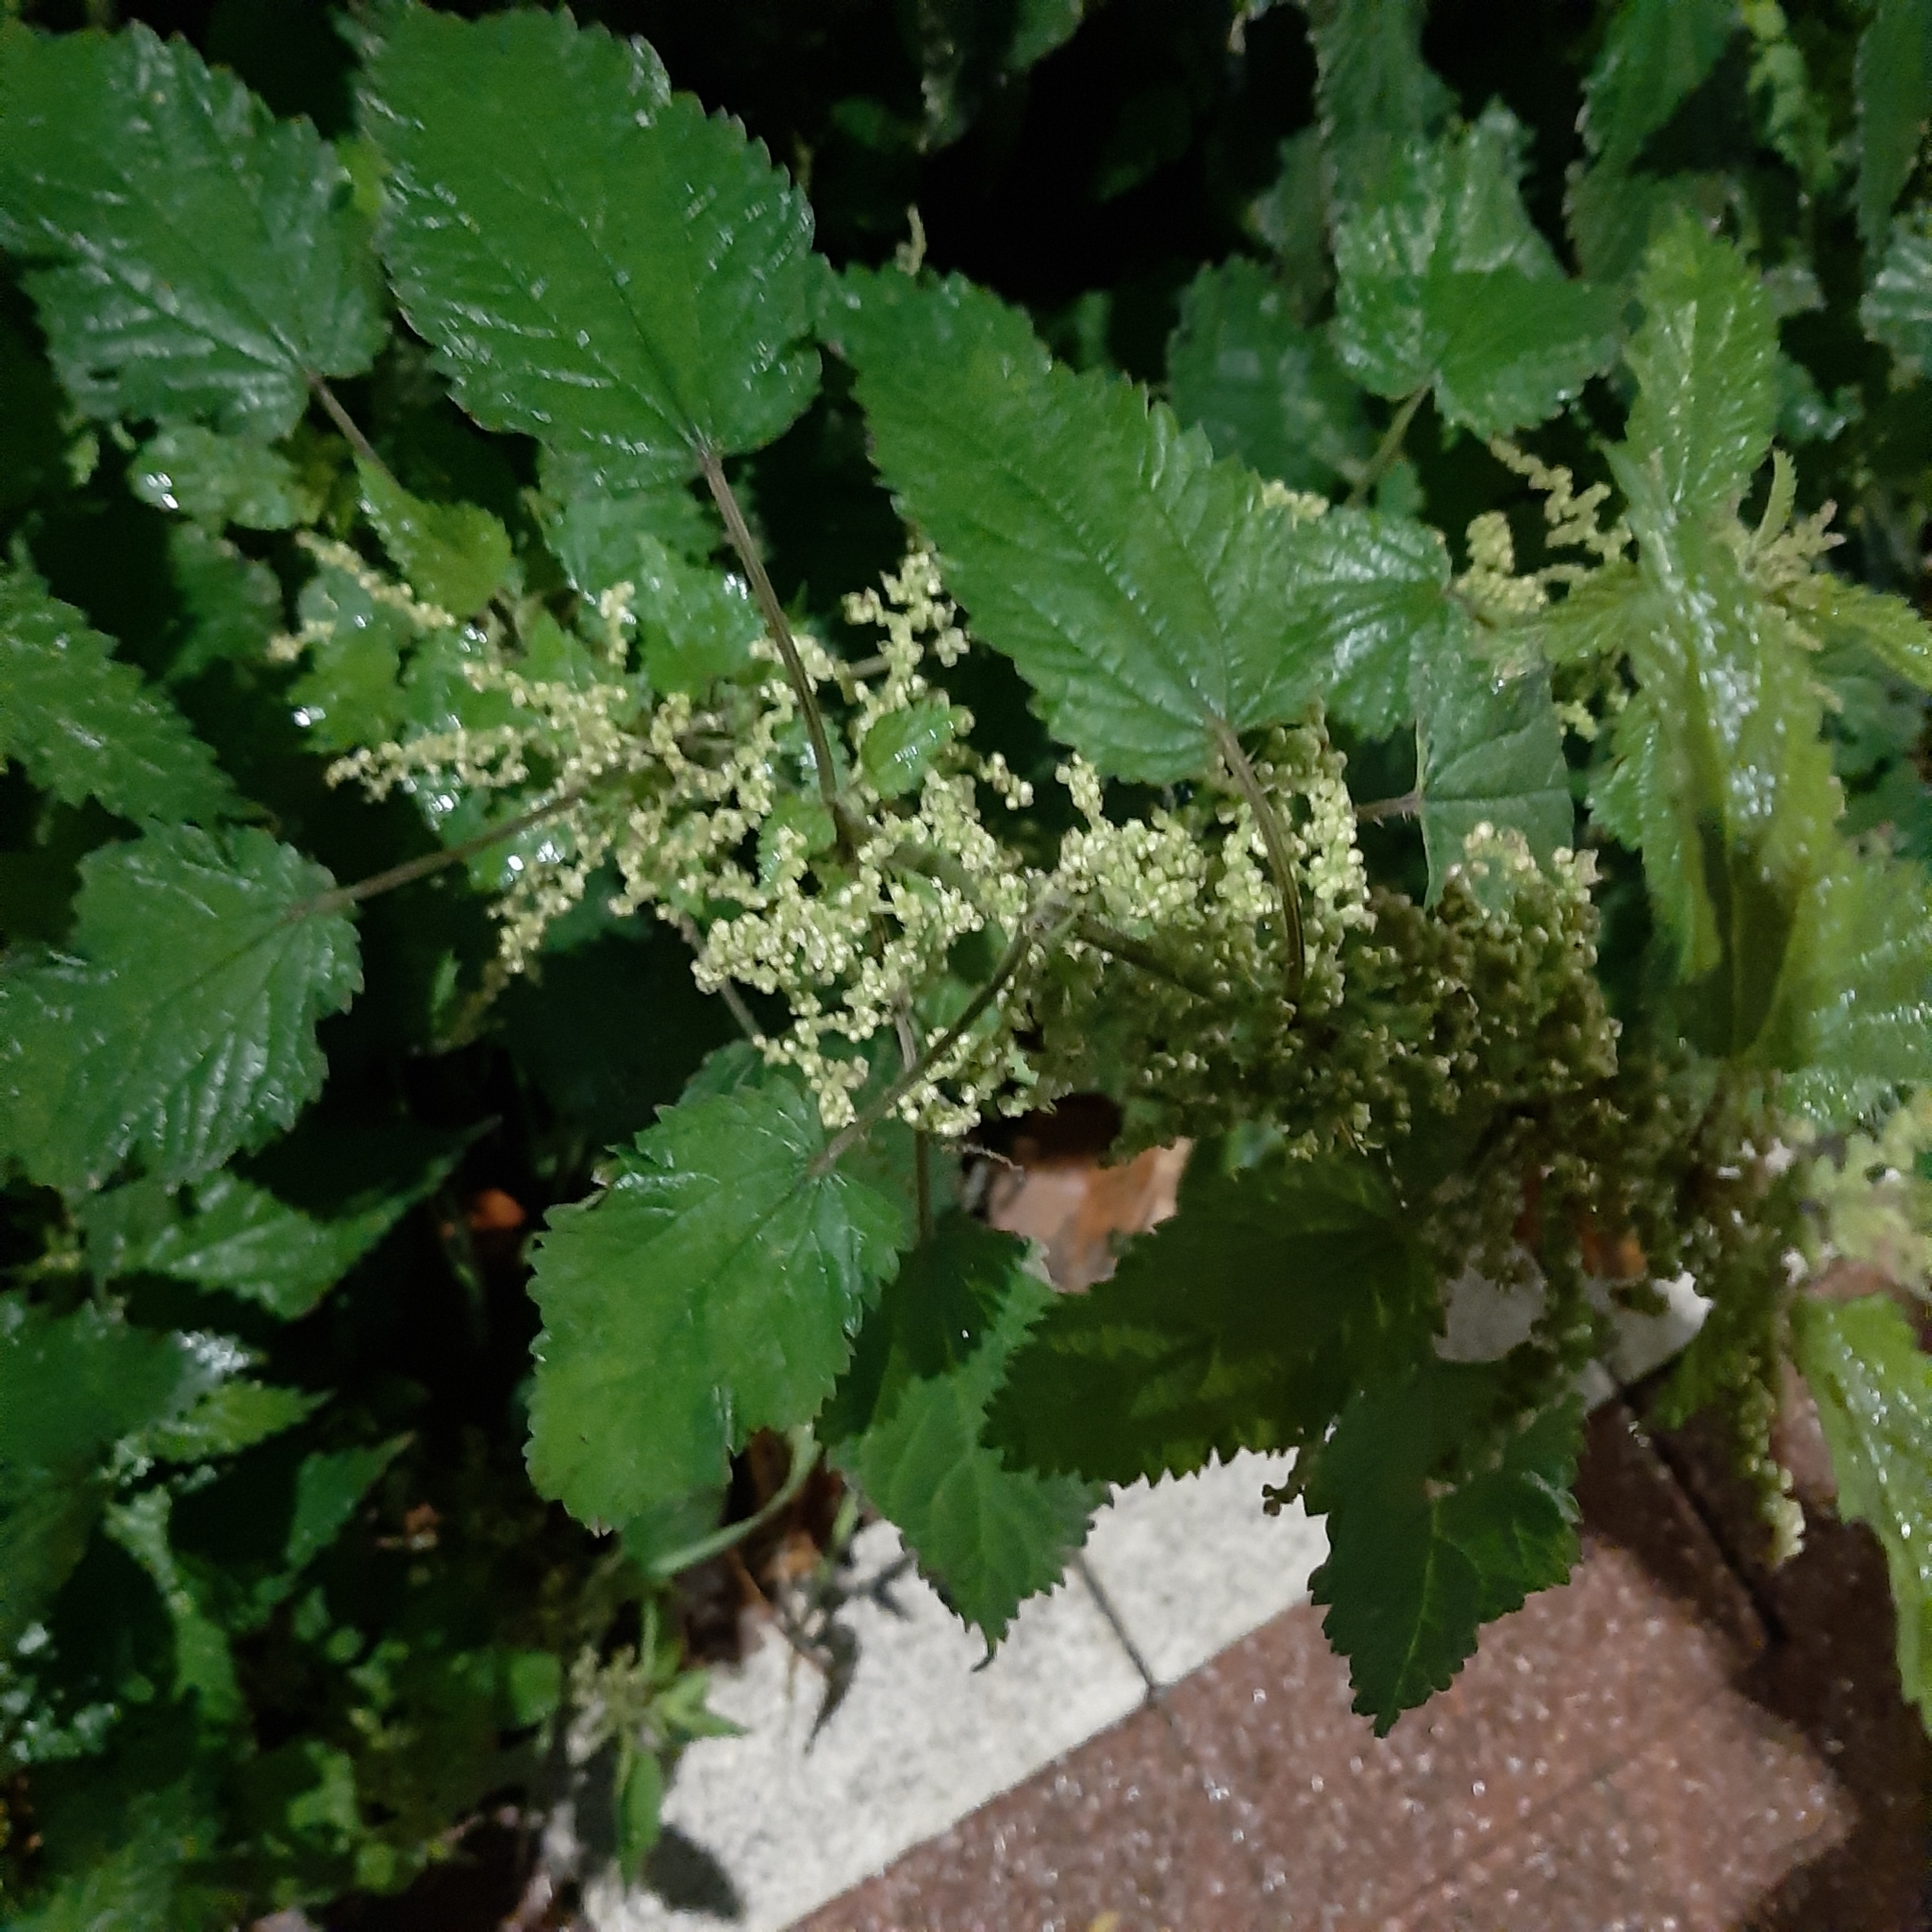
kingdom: Plantae
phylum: Tracheophyta
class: Magnoliopsida
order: Rosales
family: Urticaceae
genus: Urtica
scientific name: Urtica dioica
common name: Common nettle
